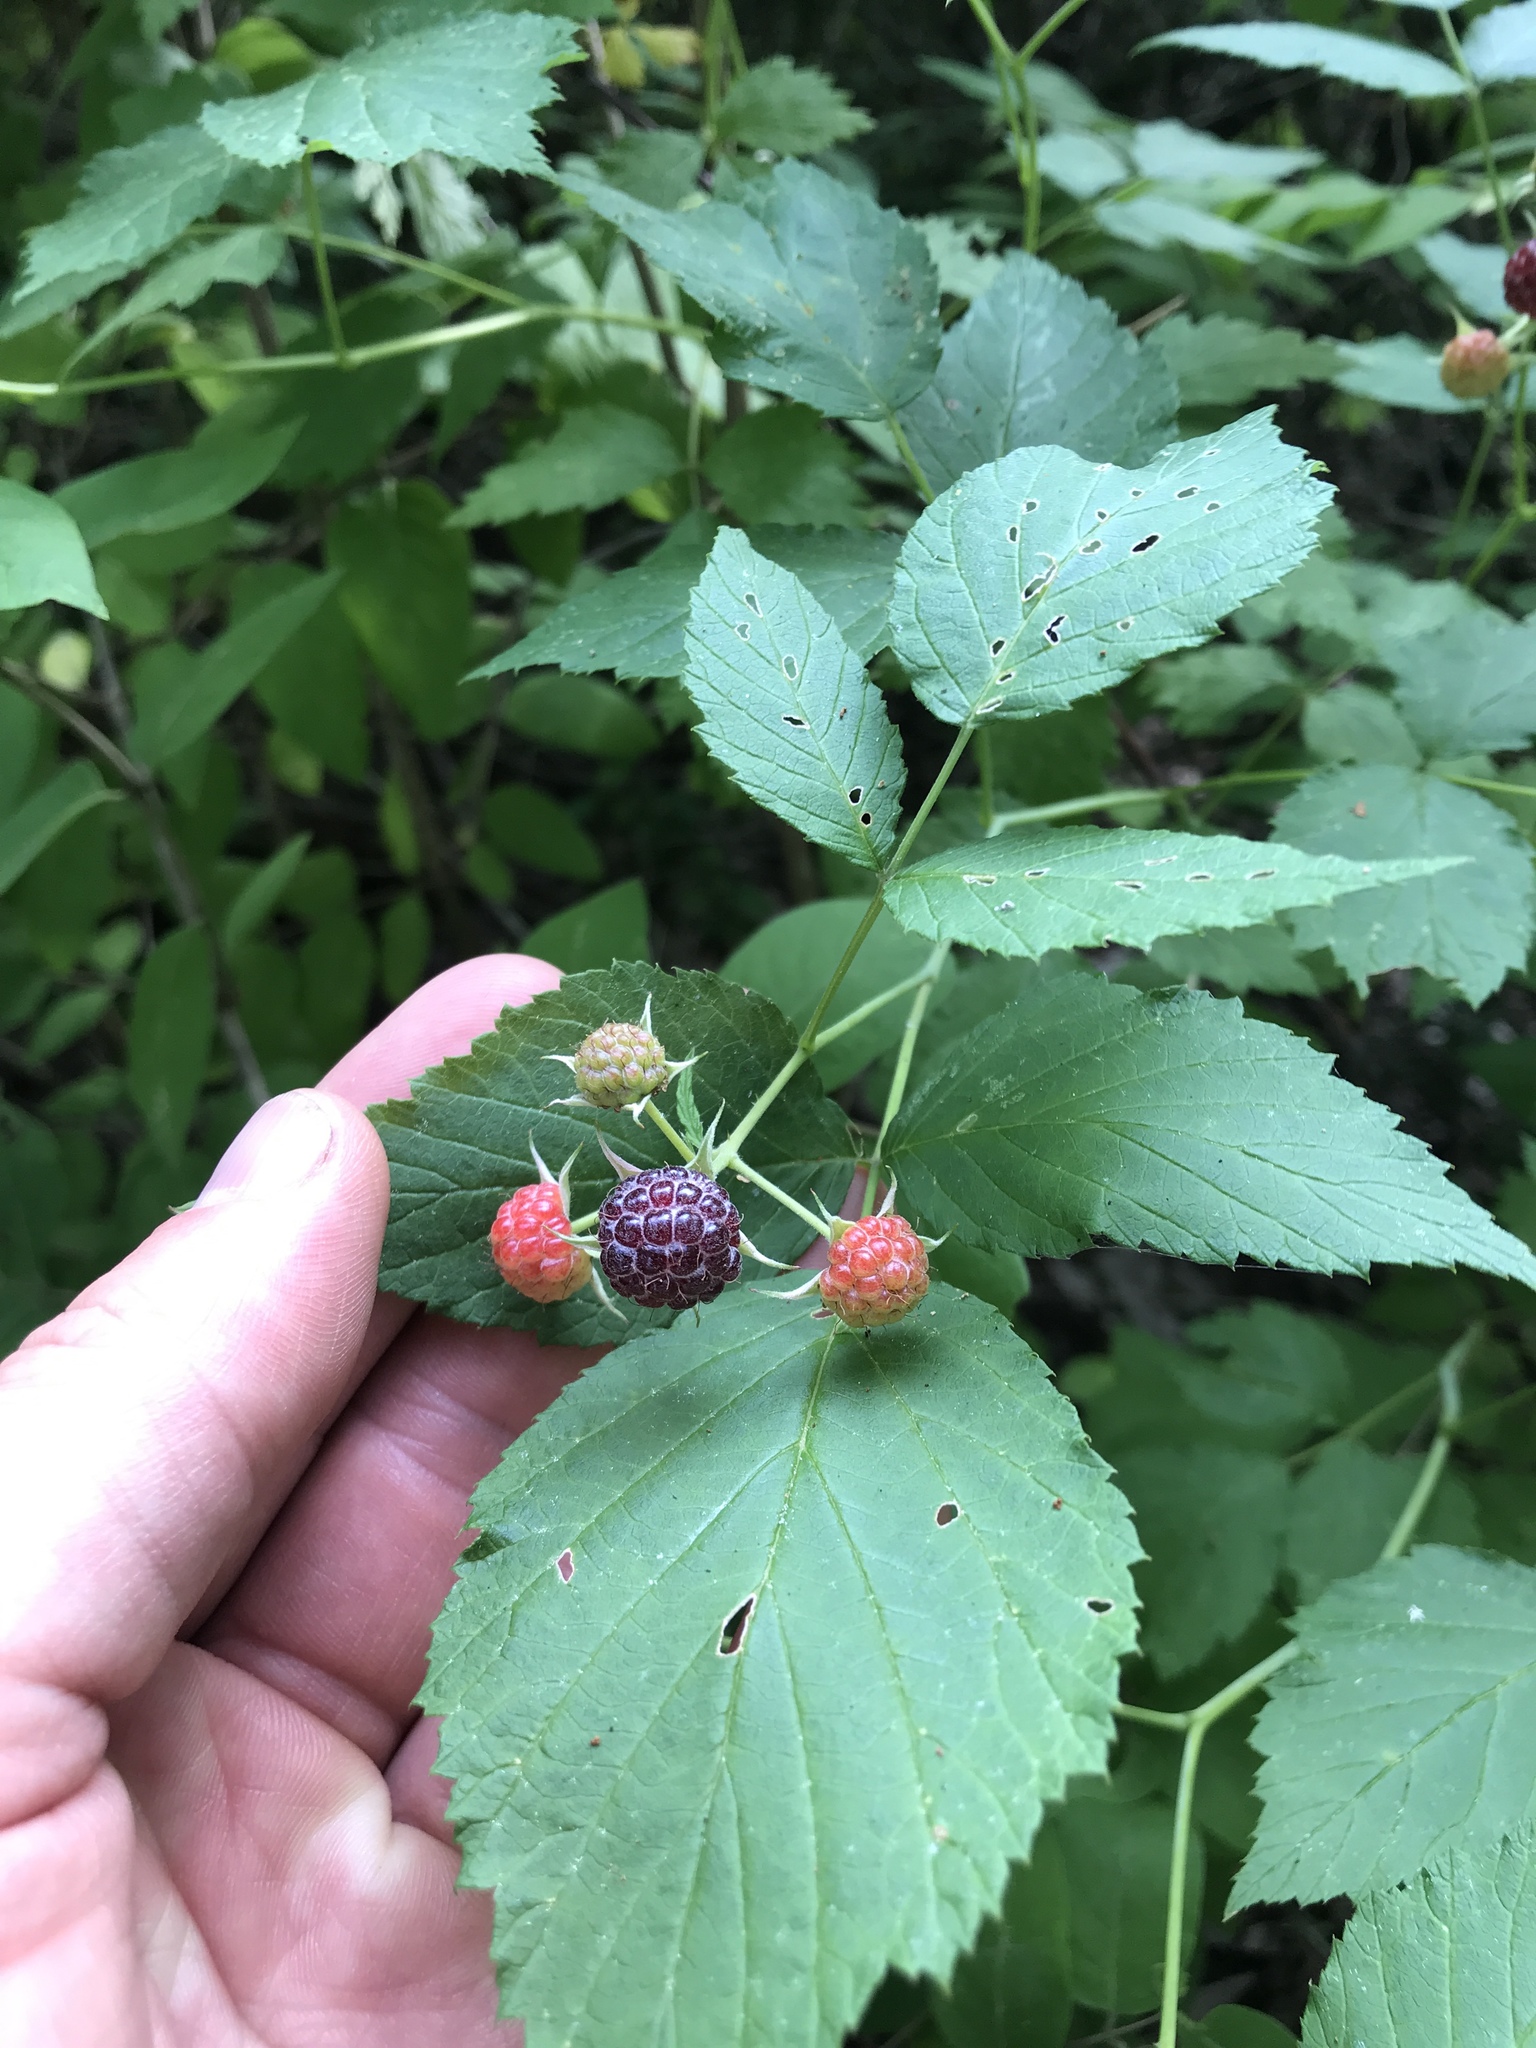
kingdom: Plantae
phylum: Tracheophyta
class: Magnoliopsida
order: Rosales
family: Rosaceae
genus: Rubus
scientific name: Rubus occidentalis
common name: Black raspberry
